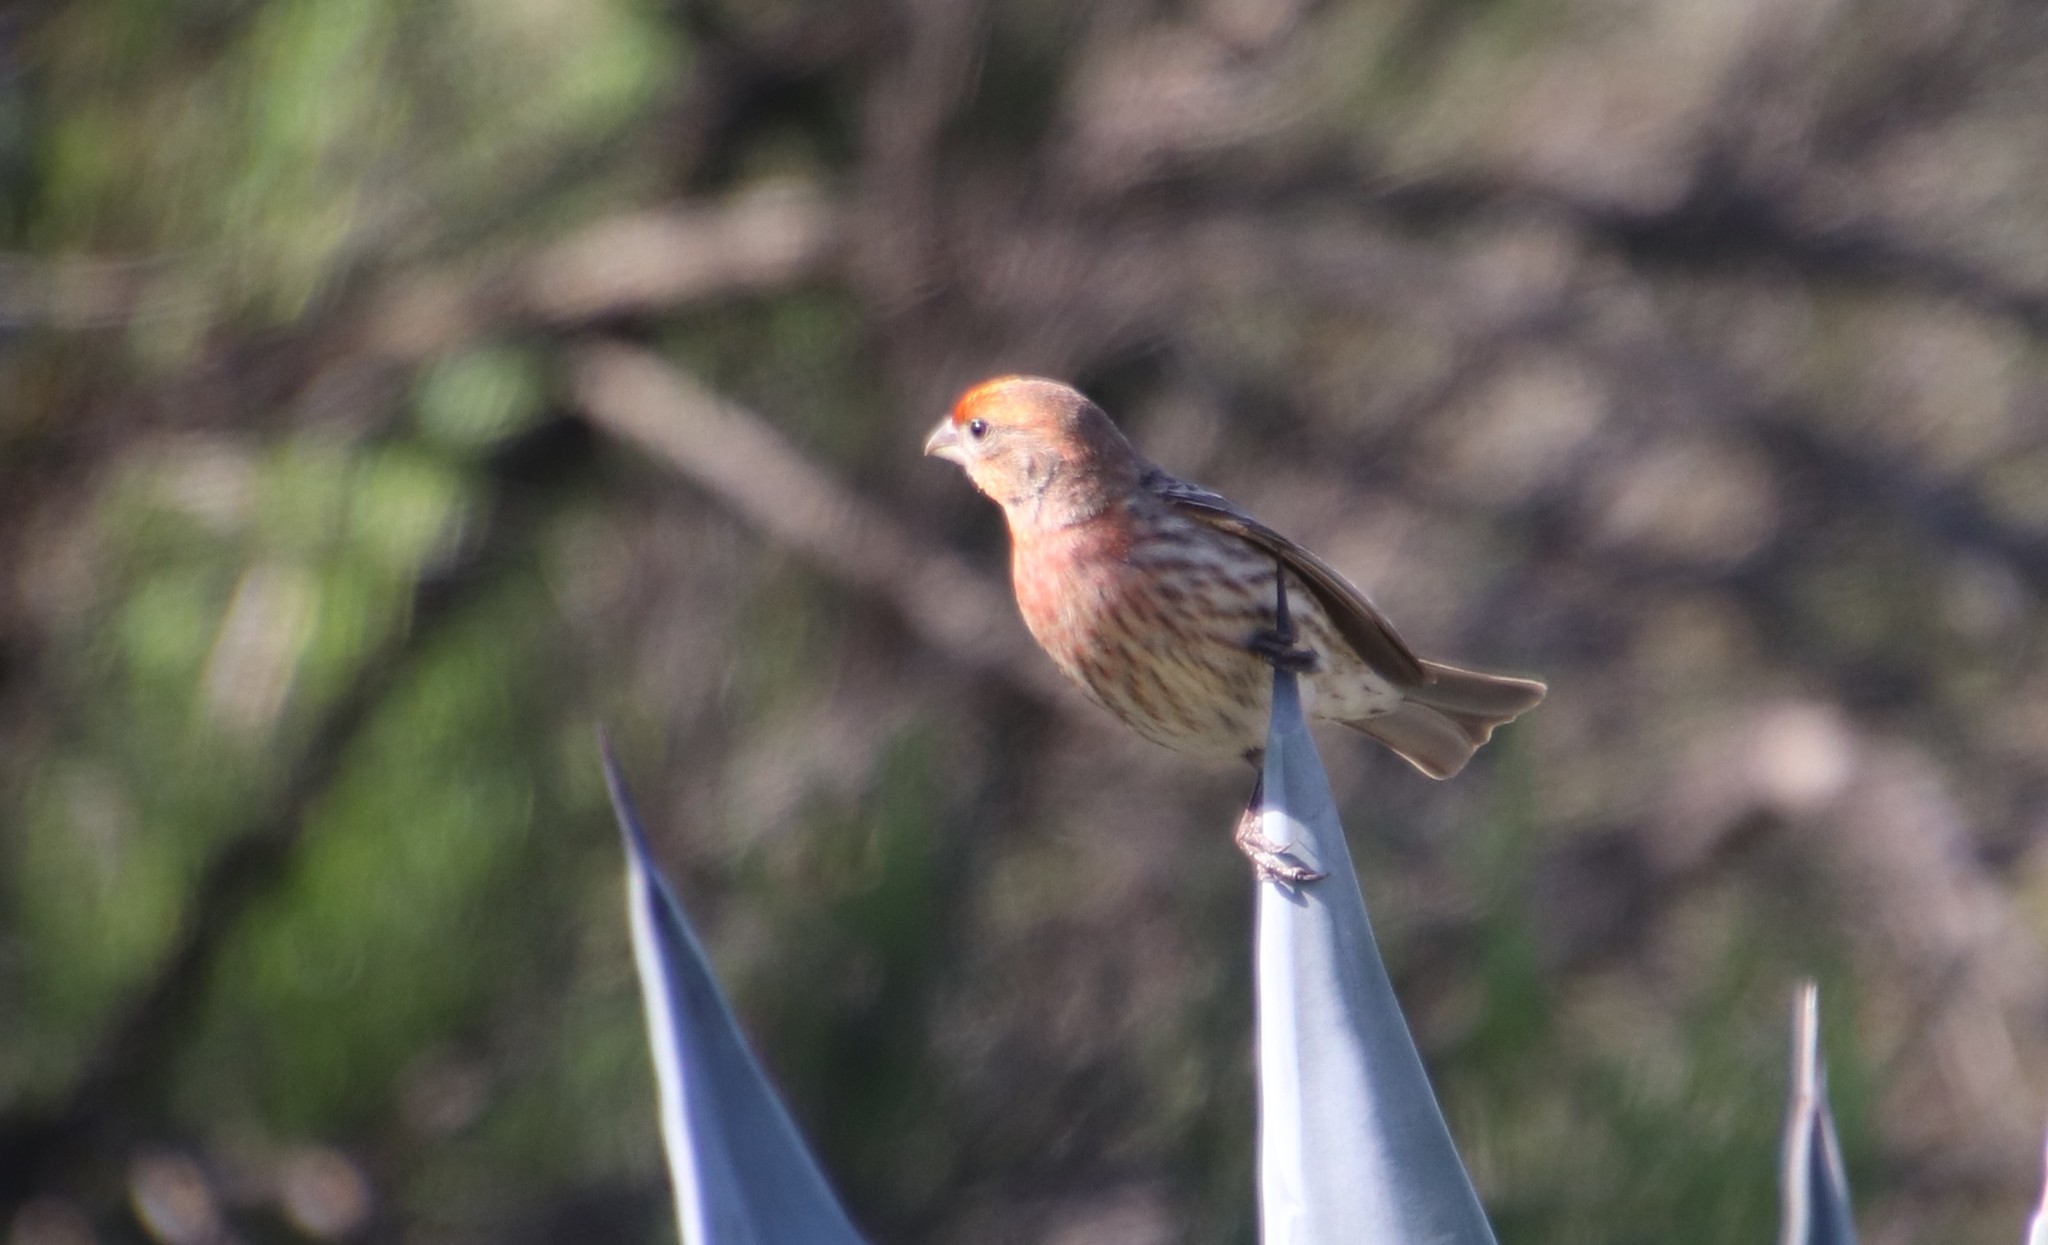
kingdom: Animalia
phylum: Chordata
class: Aves
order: Passeriformes
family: Fringillidae
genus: Haemorhous
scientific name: Haemorhous mexicanus
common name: House finch
